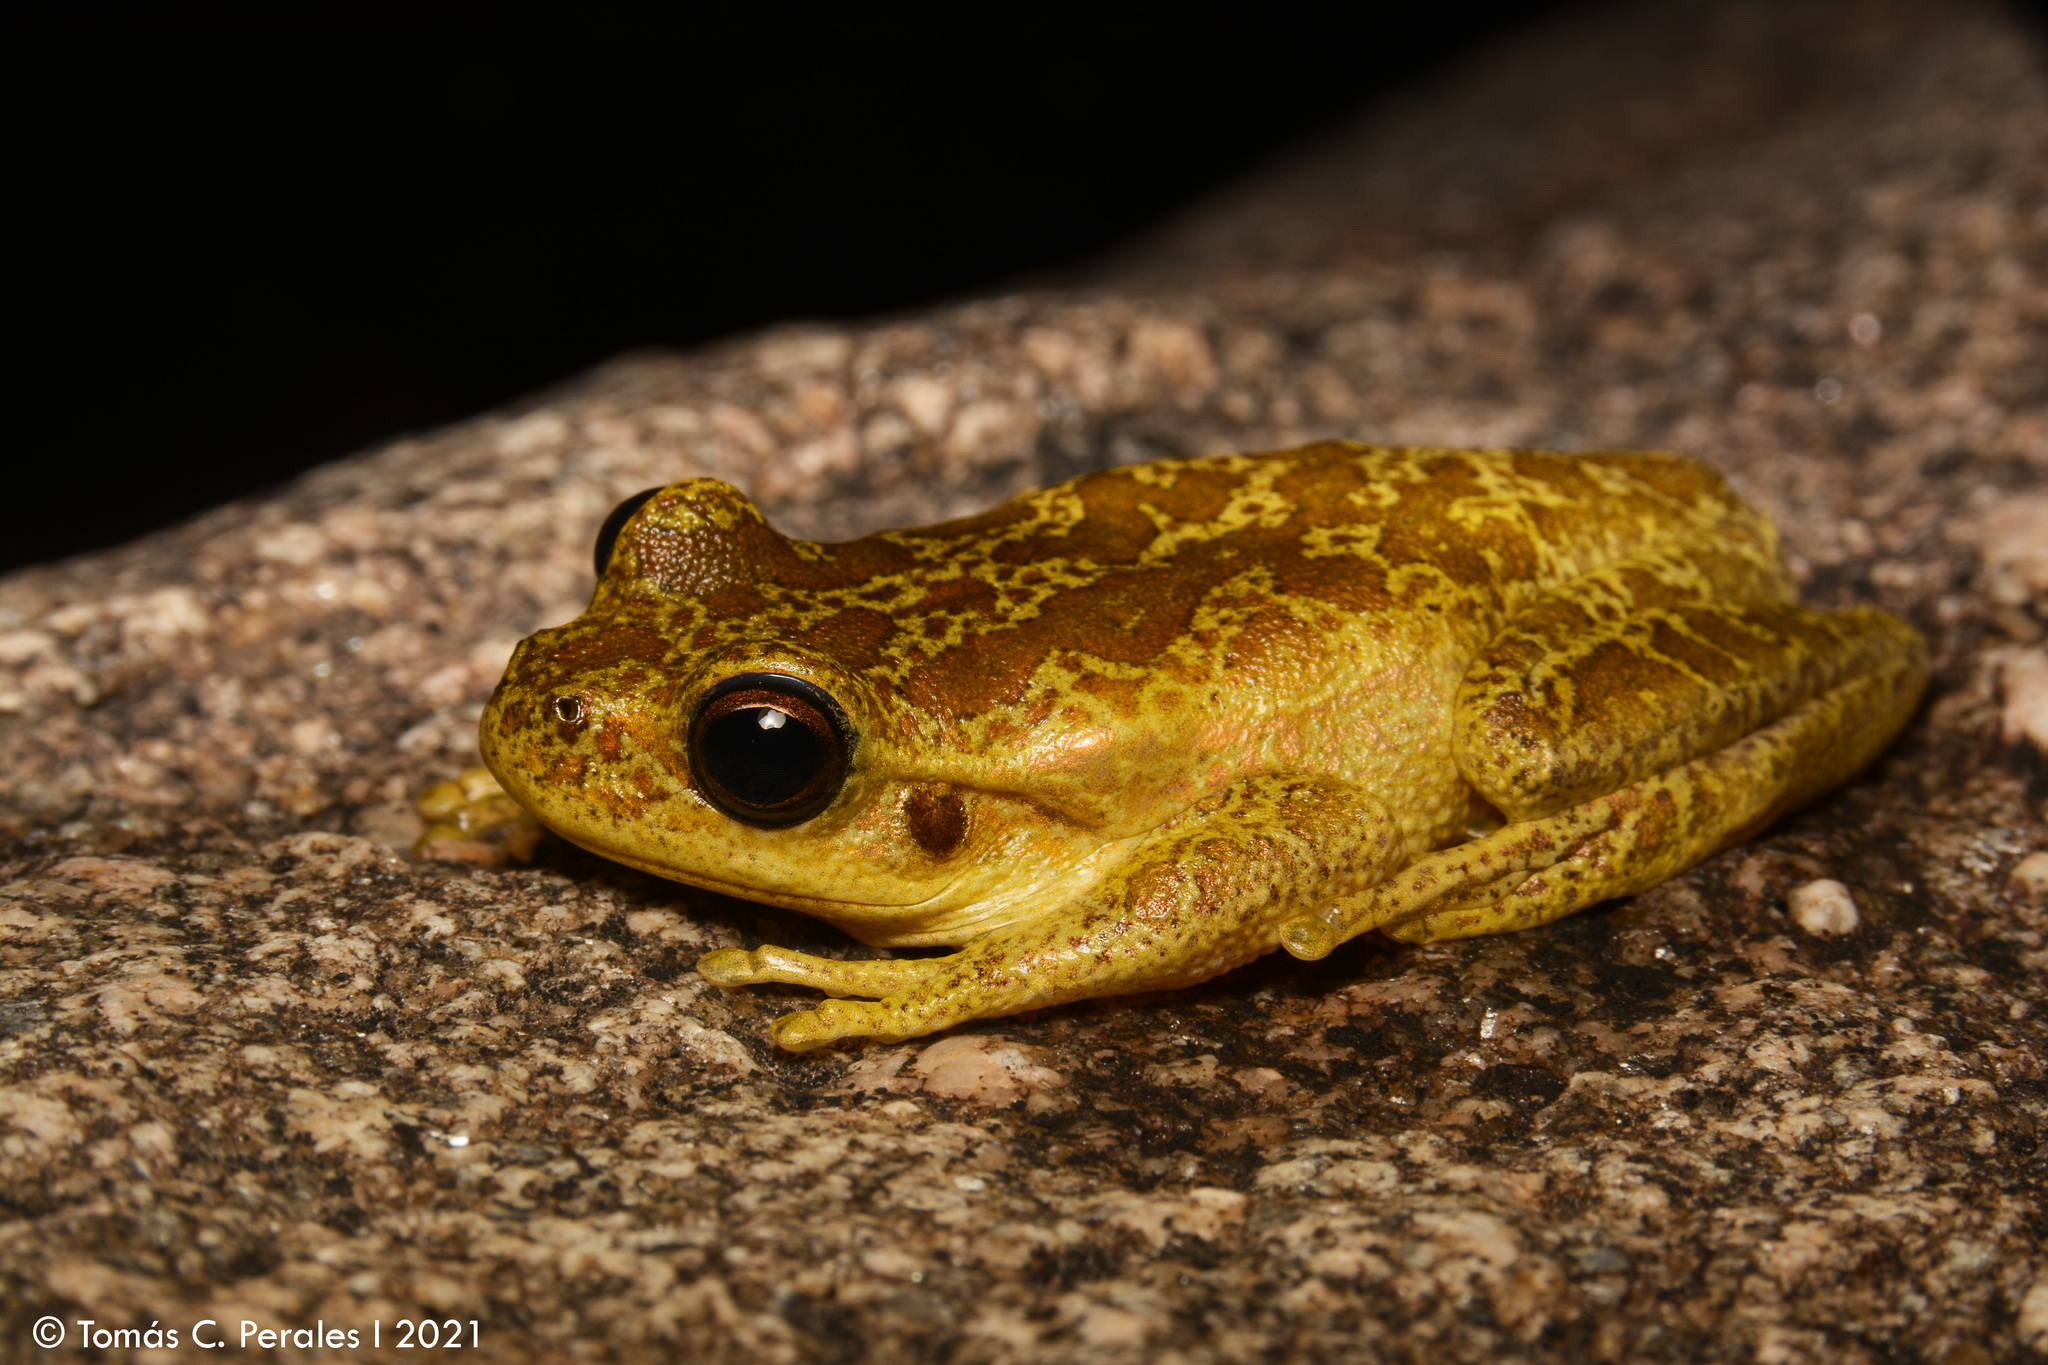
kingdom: Animalia
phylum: Chordata
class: Amphibia
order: Anura
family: Hylidae
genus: Boana
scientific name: Boana cordobae
